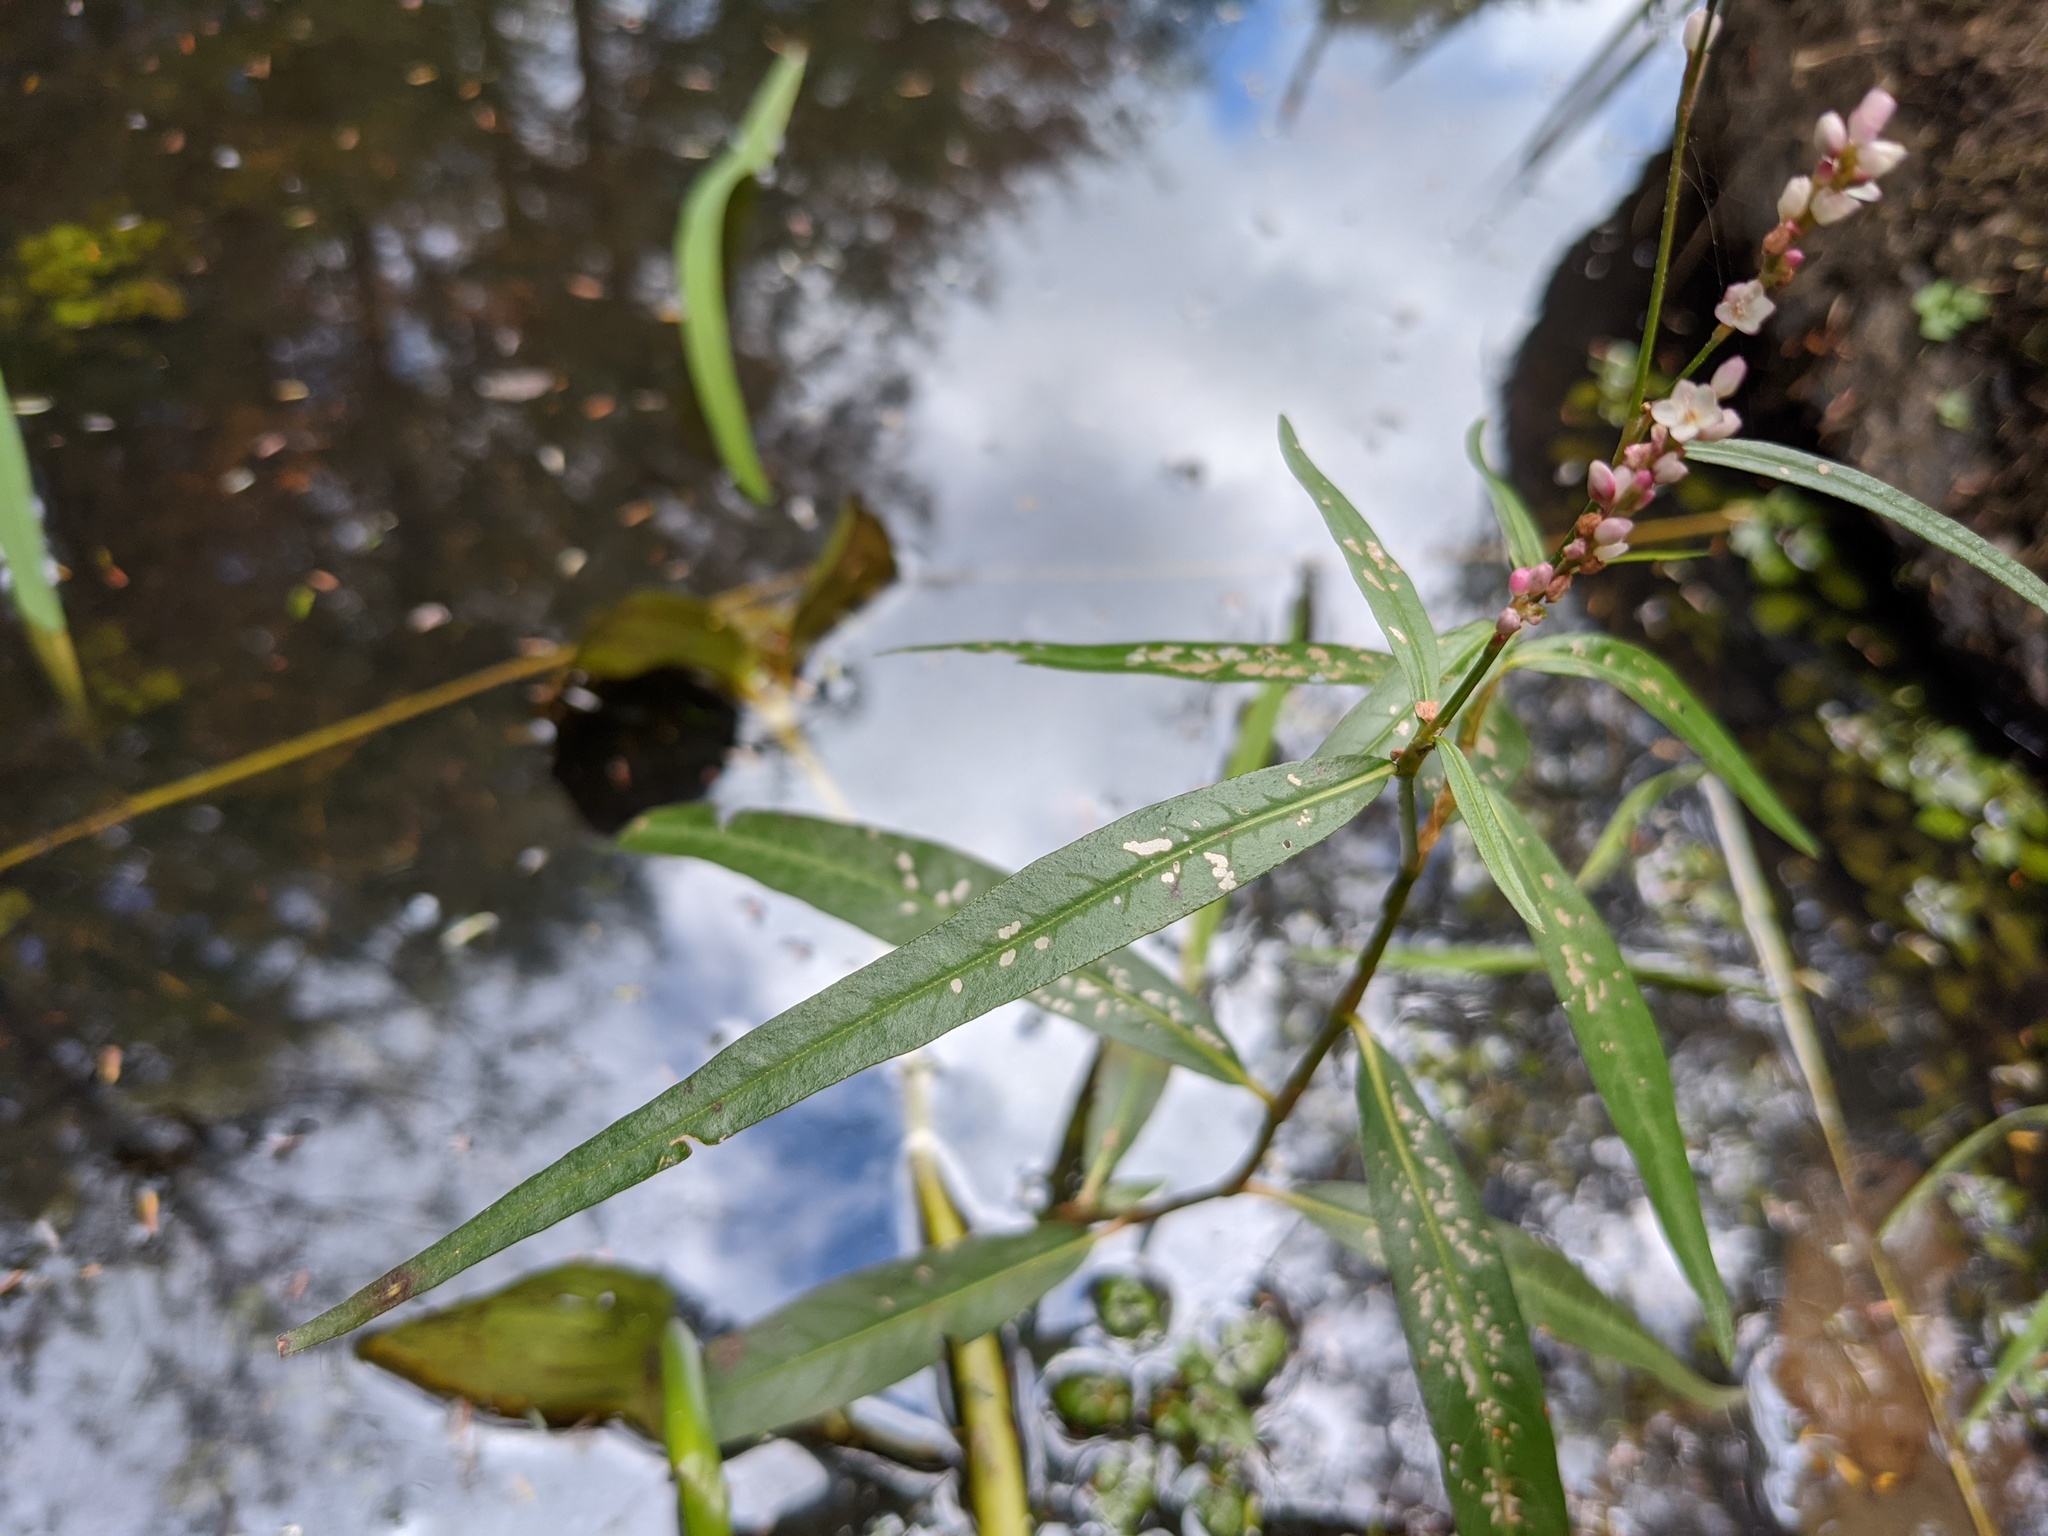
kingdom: Plantae
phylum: Tracheophyta
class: Magnoliopsida
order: Caryophyllales
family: Polygonaceae
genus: Persicaria
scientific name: Persicaria hydropiperoides
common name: Swamp smartweed
